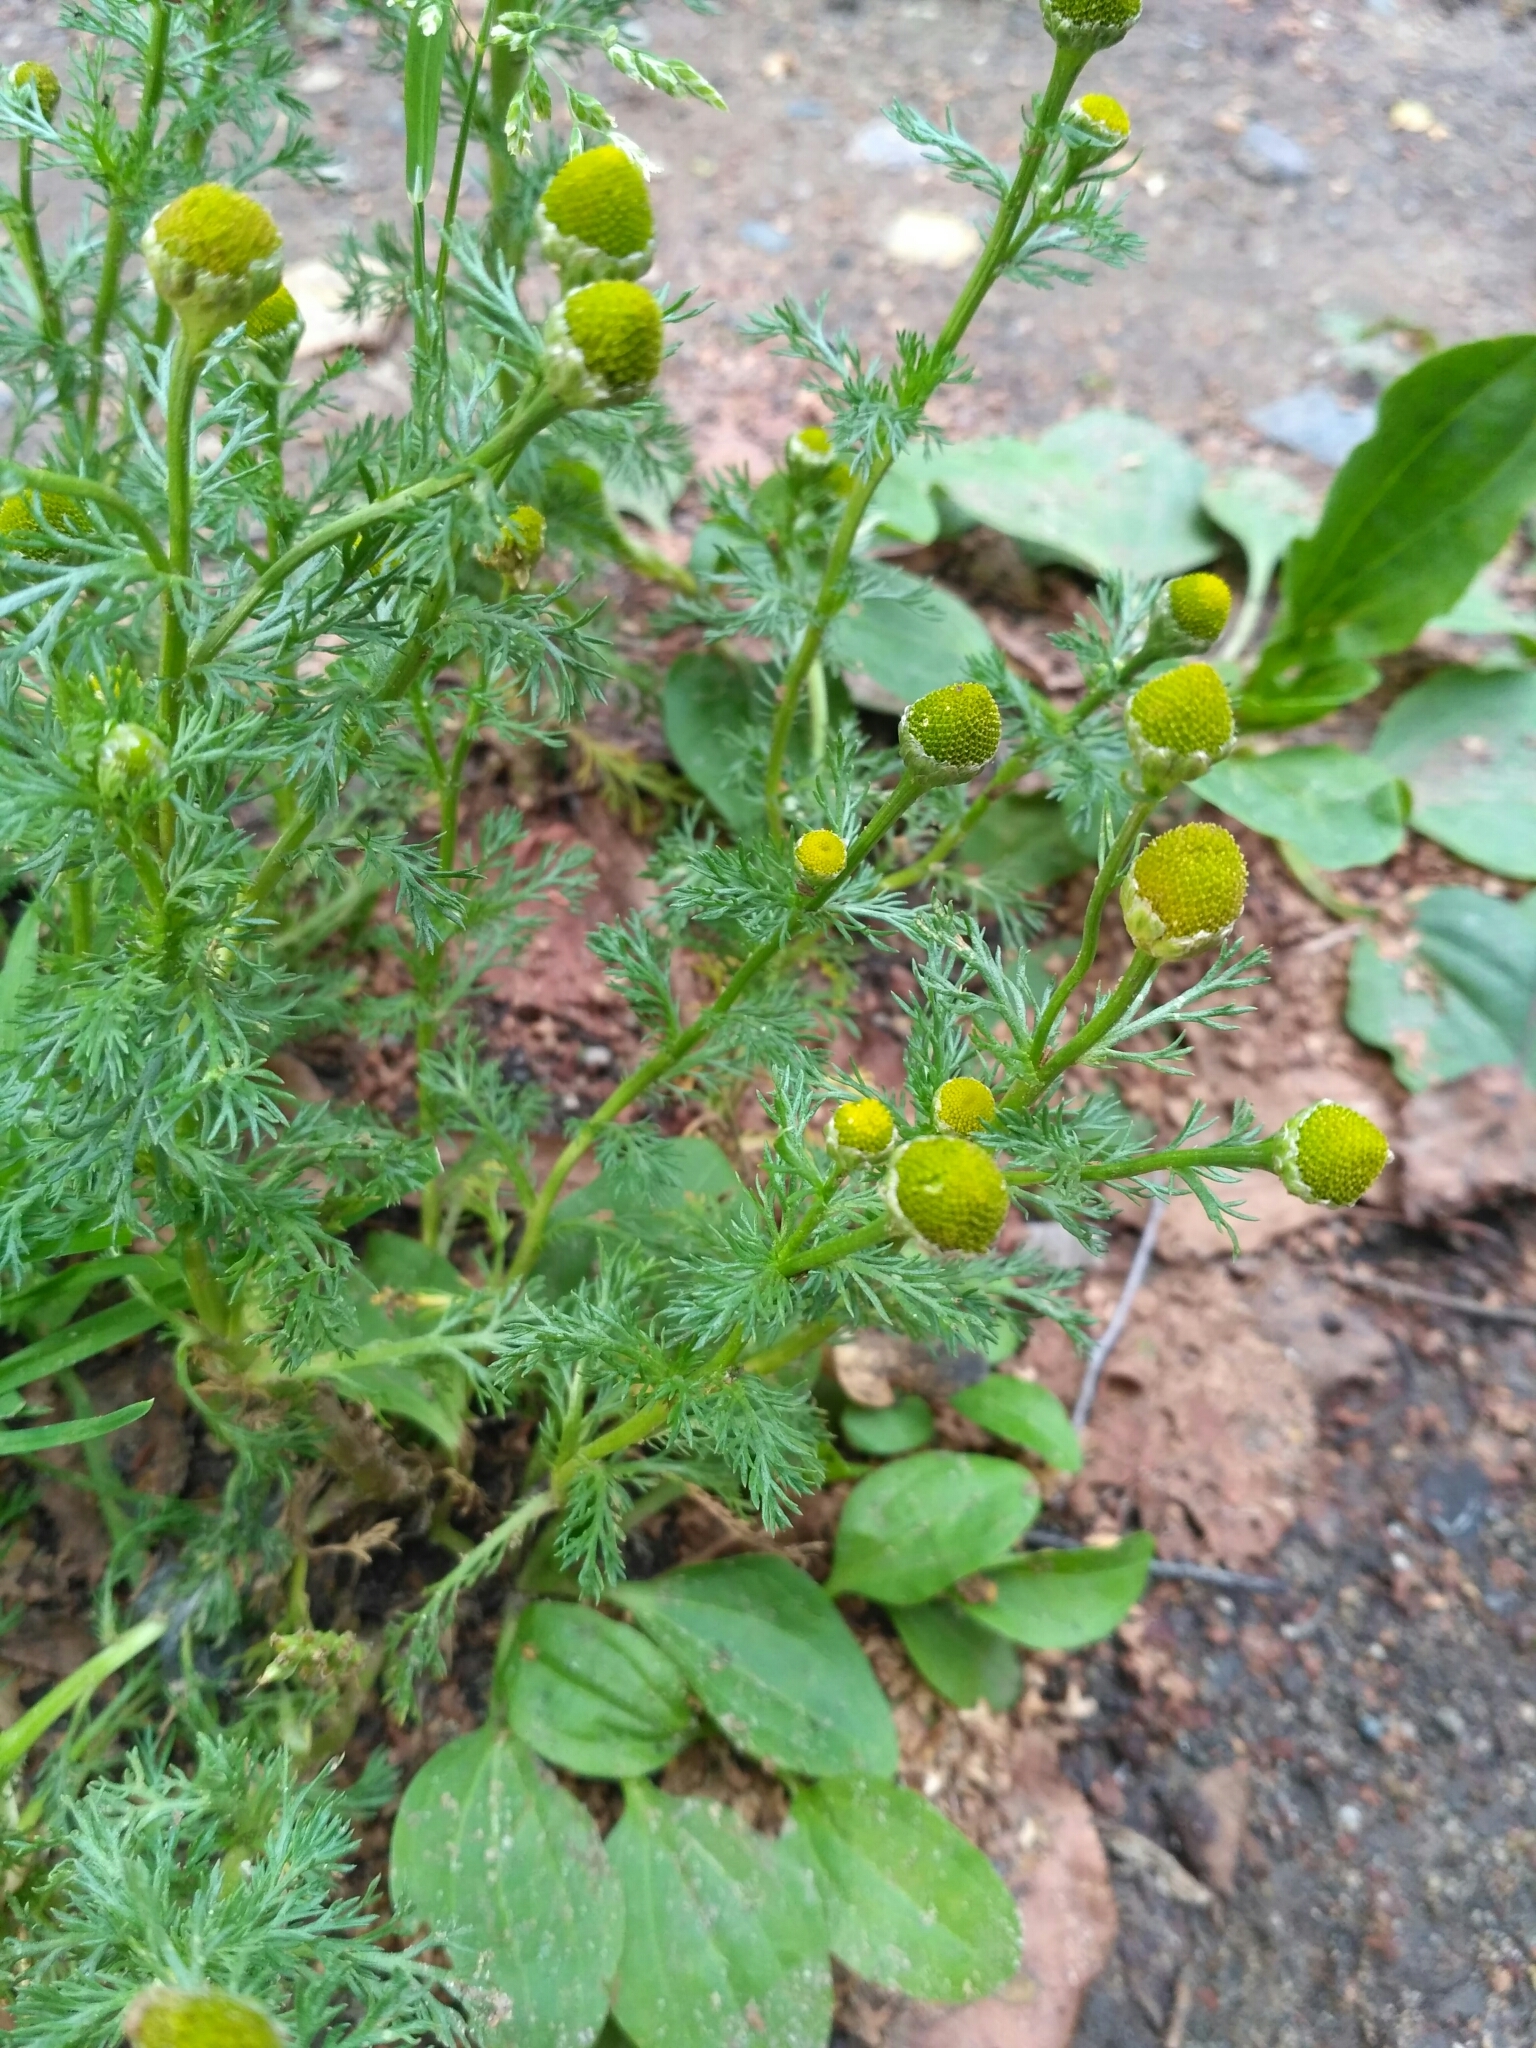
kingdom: Plantae
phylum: Tracheophyta
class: Magnoliopsida
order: Asterales
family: Asteraceae
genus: Matricaria
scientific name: Matricaria discoidea
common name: Disc mayweed
